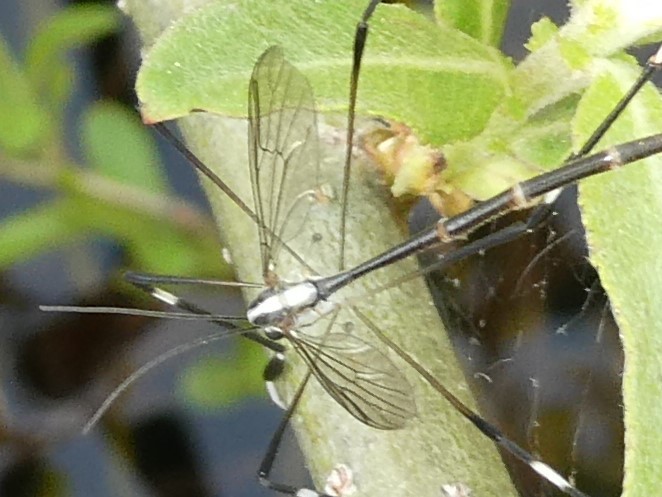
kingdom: Animalia
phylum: Arthropoda
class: Insecta
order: Diptera
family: Ptychopteridae
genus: Bittacomorpha
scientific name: Bittacomorpha clavipes
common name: Eastern phantom crane fly
